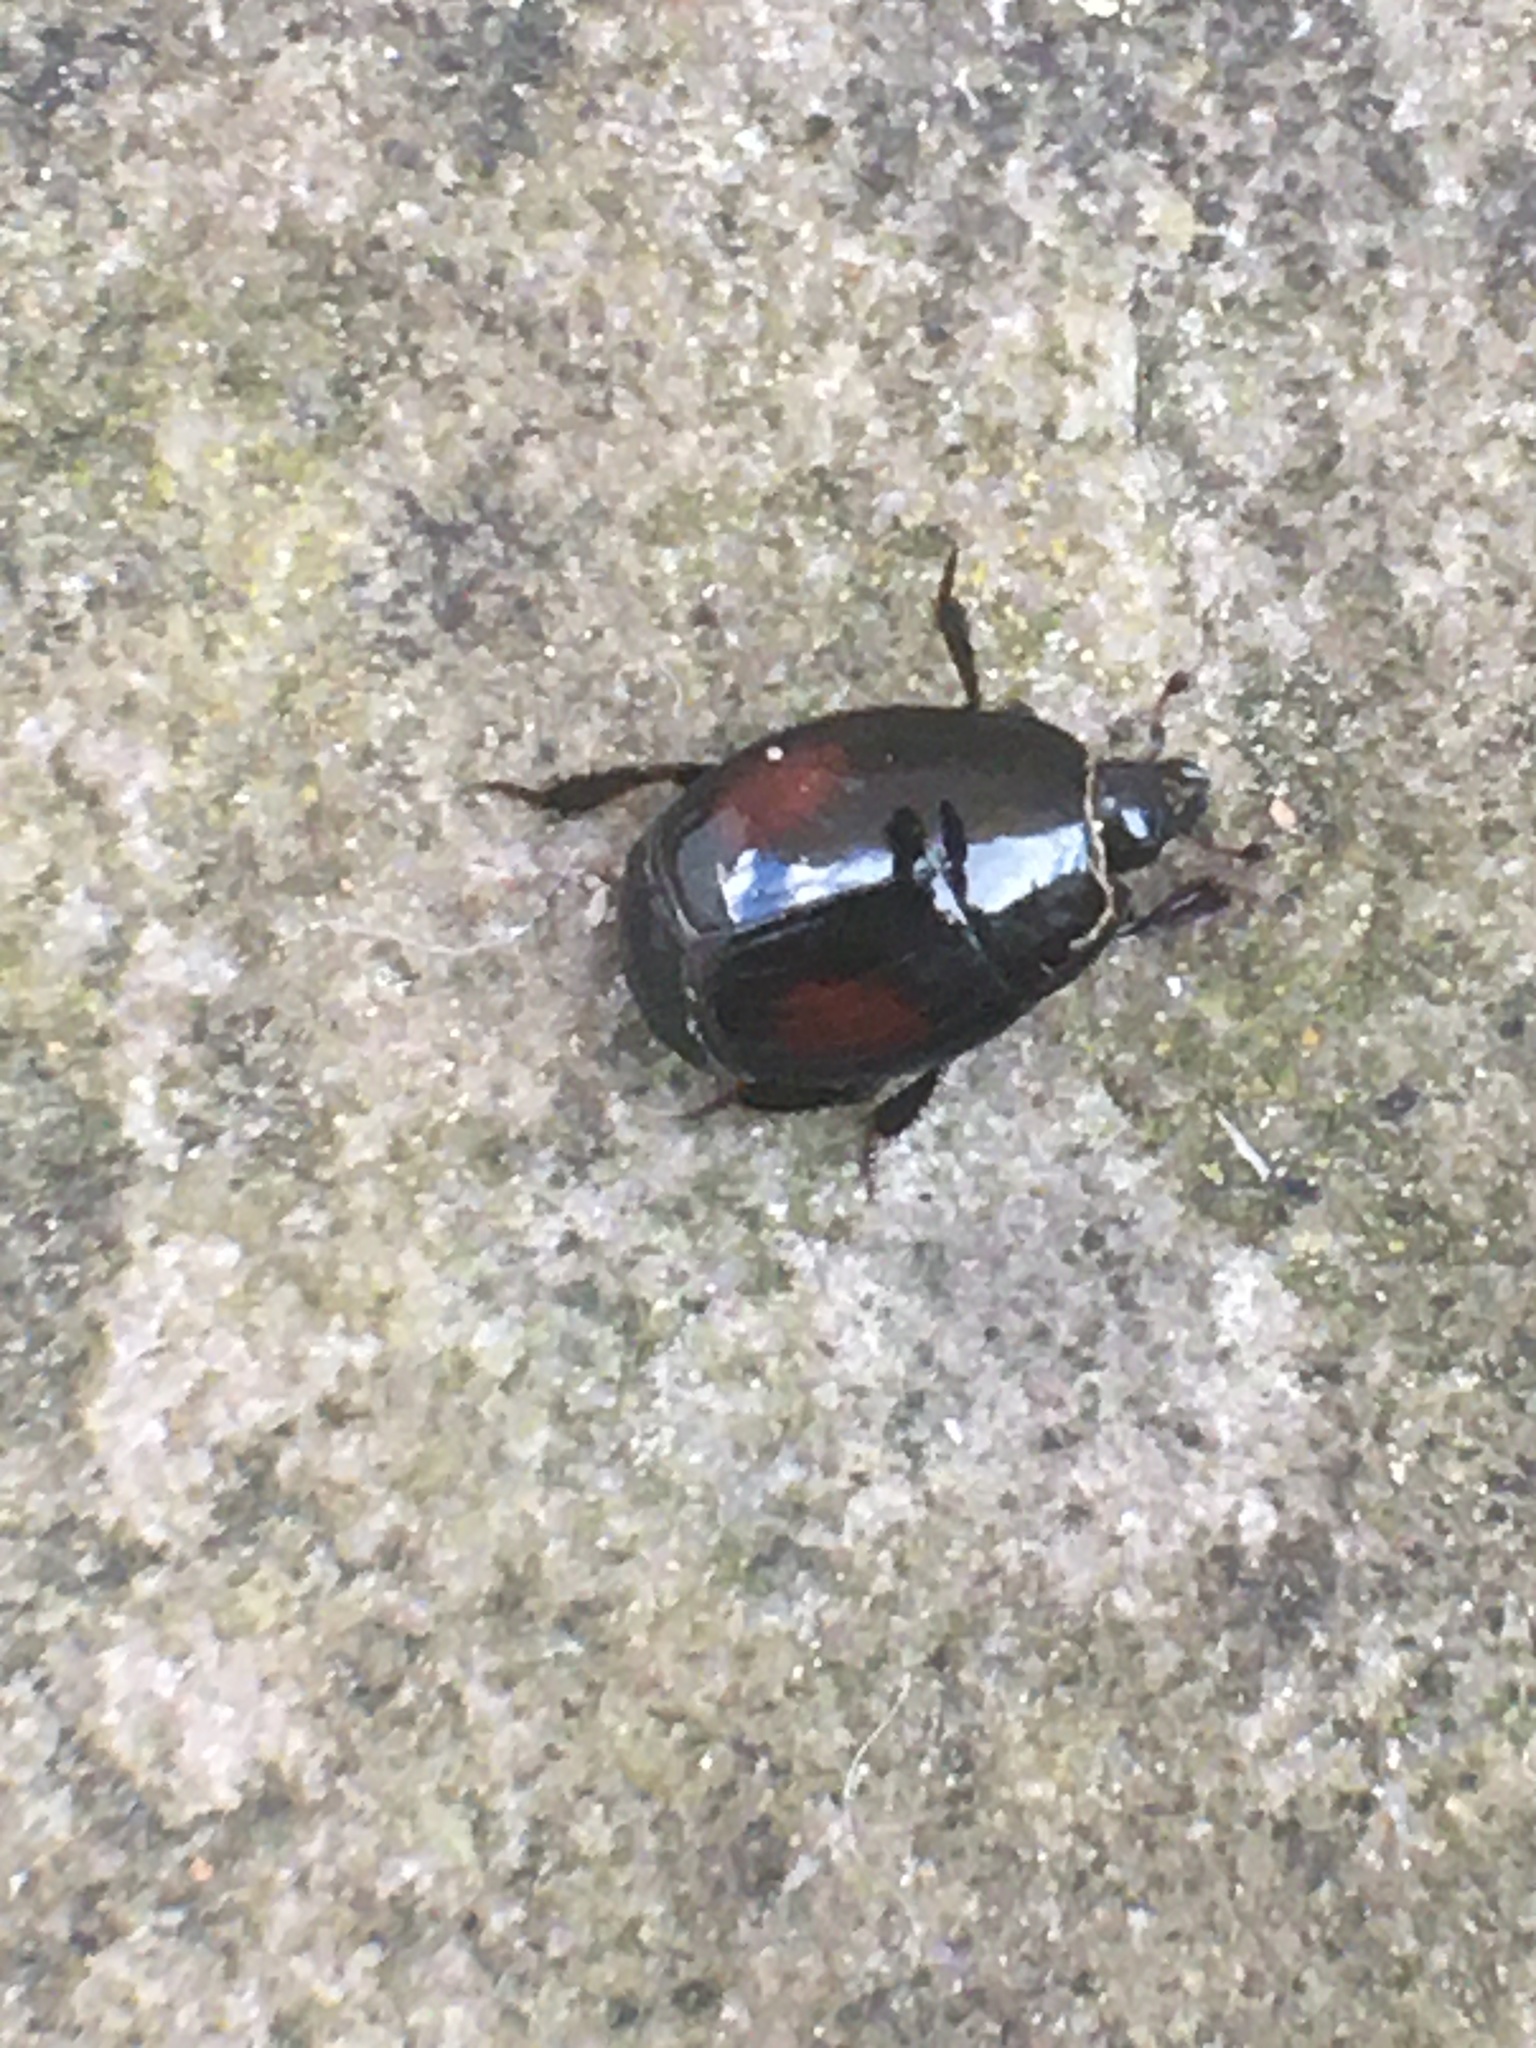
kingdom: Animalia
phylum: Arthropoda
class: Insecta
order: Coleoptera
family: Histeridae
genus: Margarinotus
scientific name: Margarinotus purpurascens
